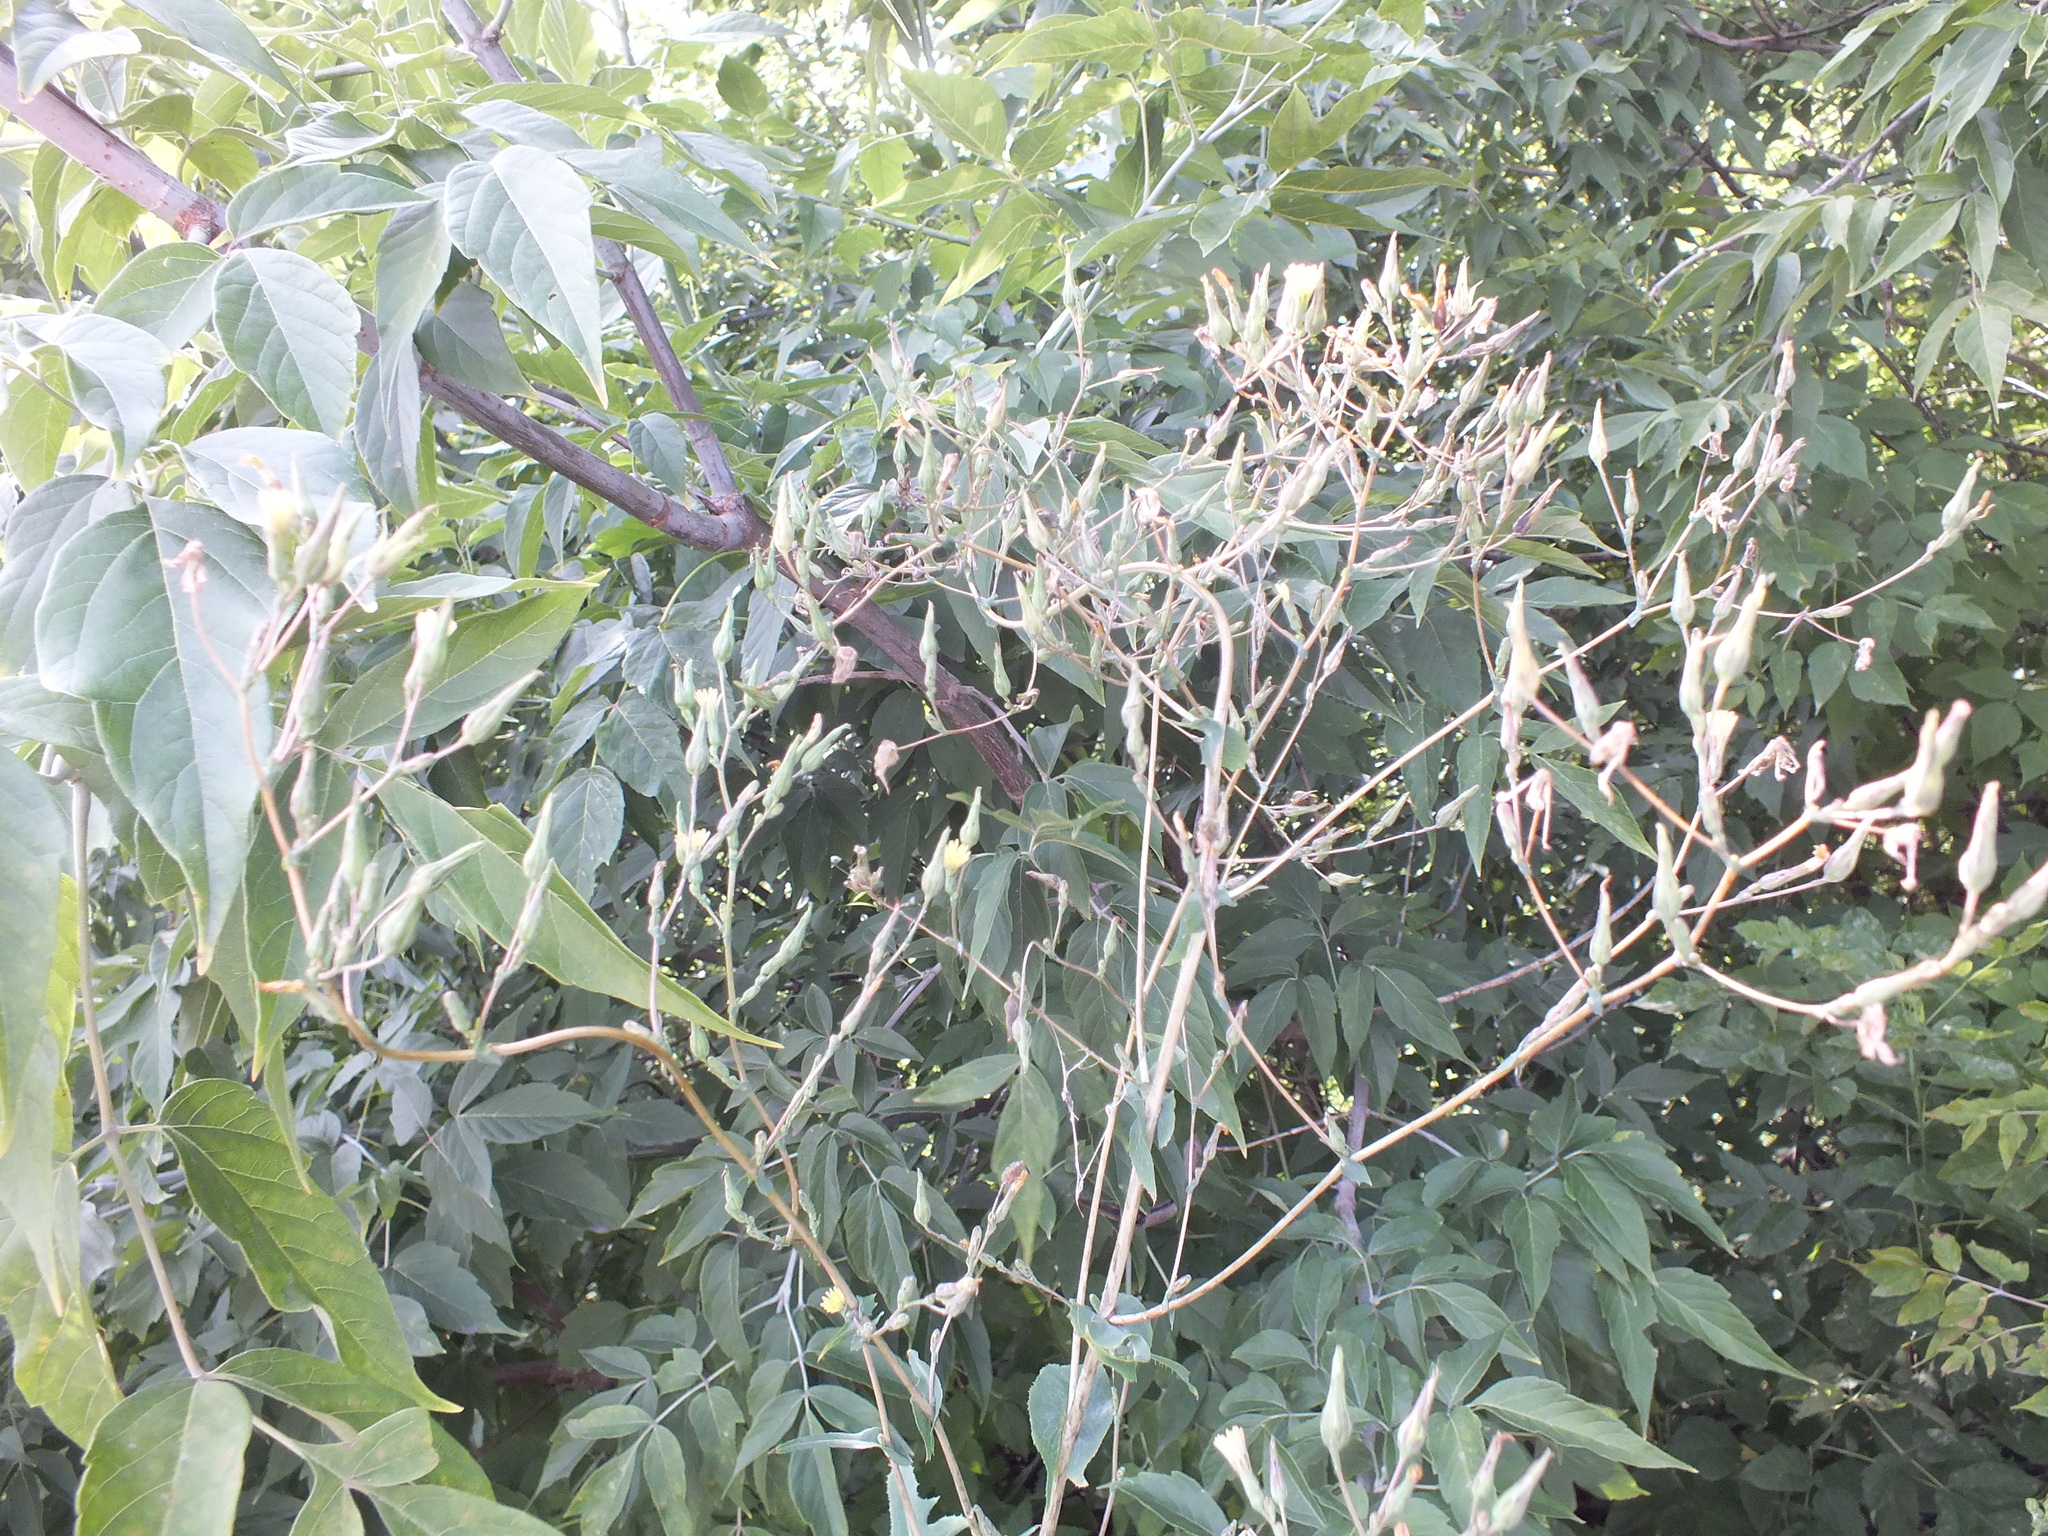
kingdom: Plantae
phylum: Tracheophyta
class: Magnoliopsida
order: Asterales
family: Asteraceae
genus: Lactuca
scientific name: Lactuca serriola
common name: Prickly lettuce
